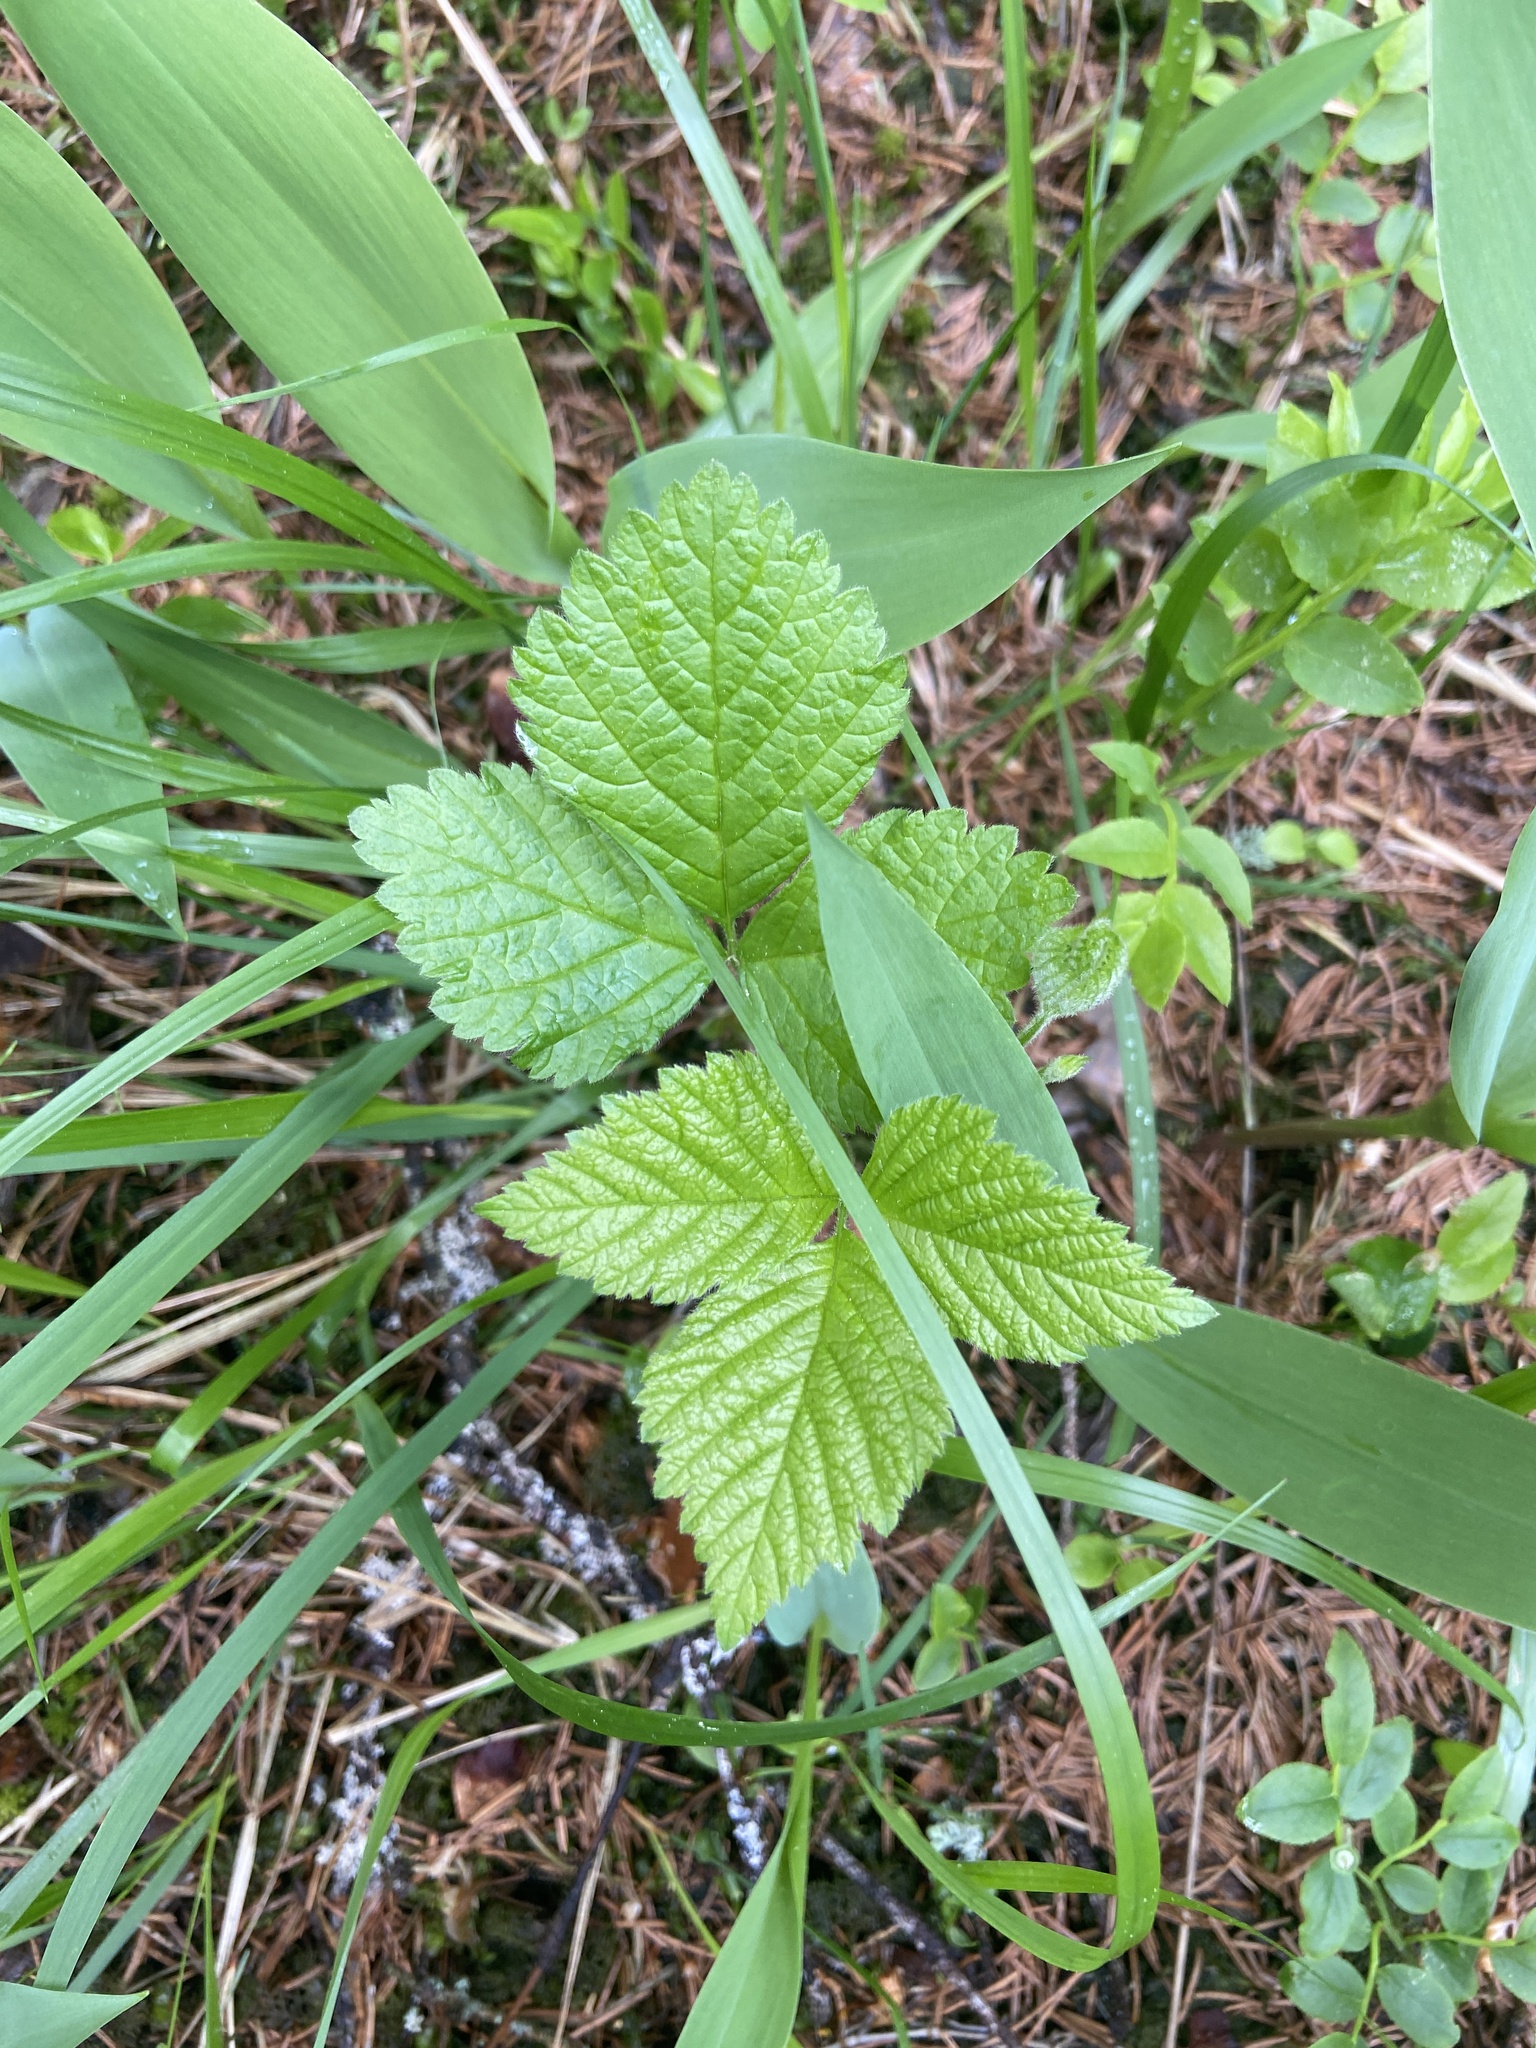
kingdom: Plantae
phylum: Tracheophyta
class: Magnoliopsida
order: Rosales
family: Rosaceae
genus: Rubus
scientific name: Rubus saxatilis
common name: Stone bramble
